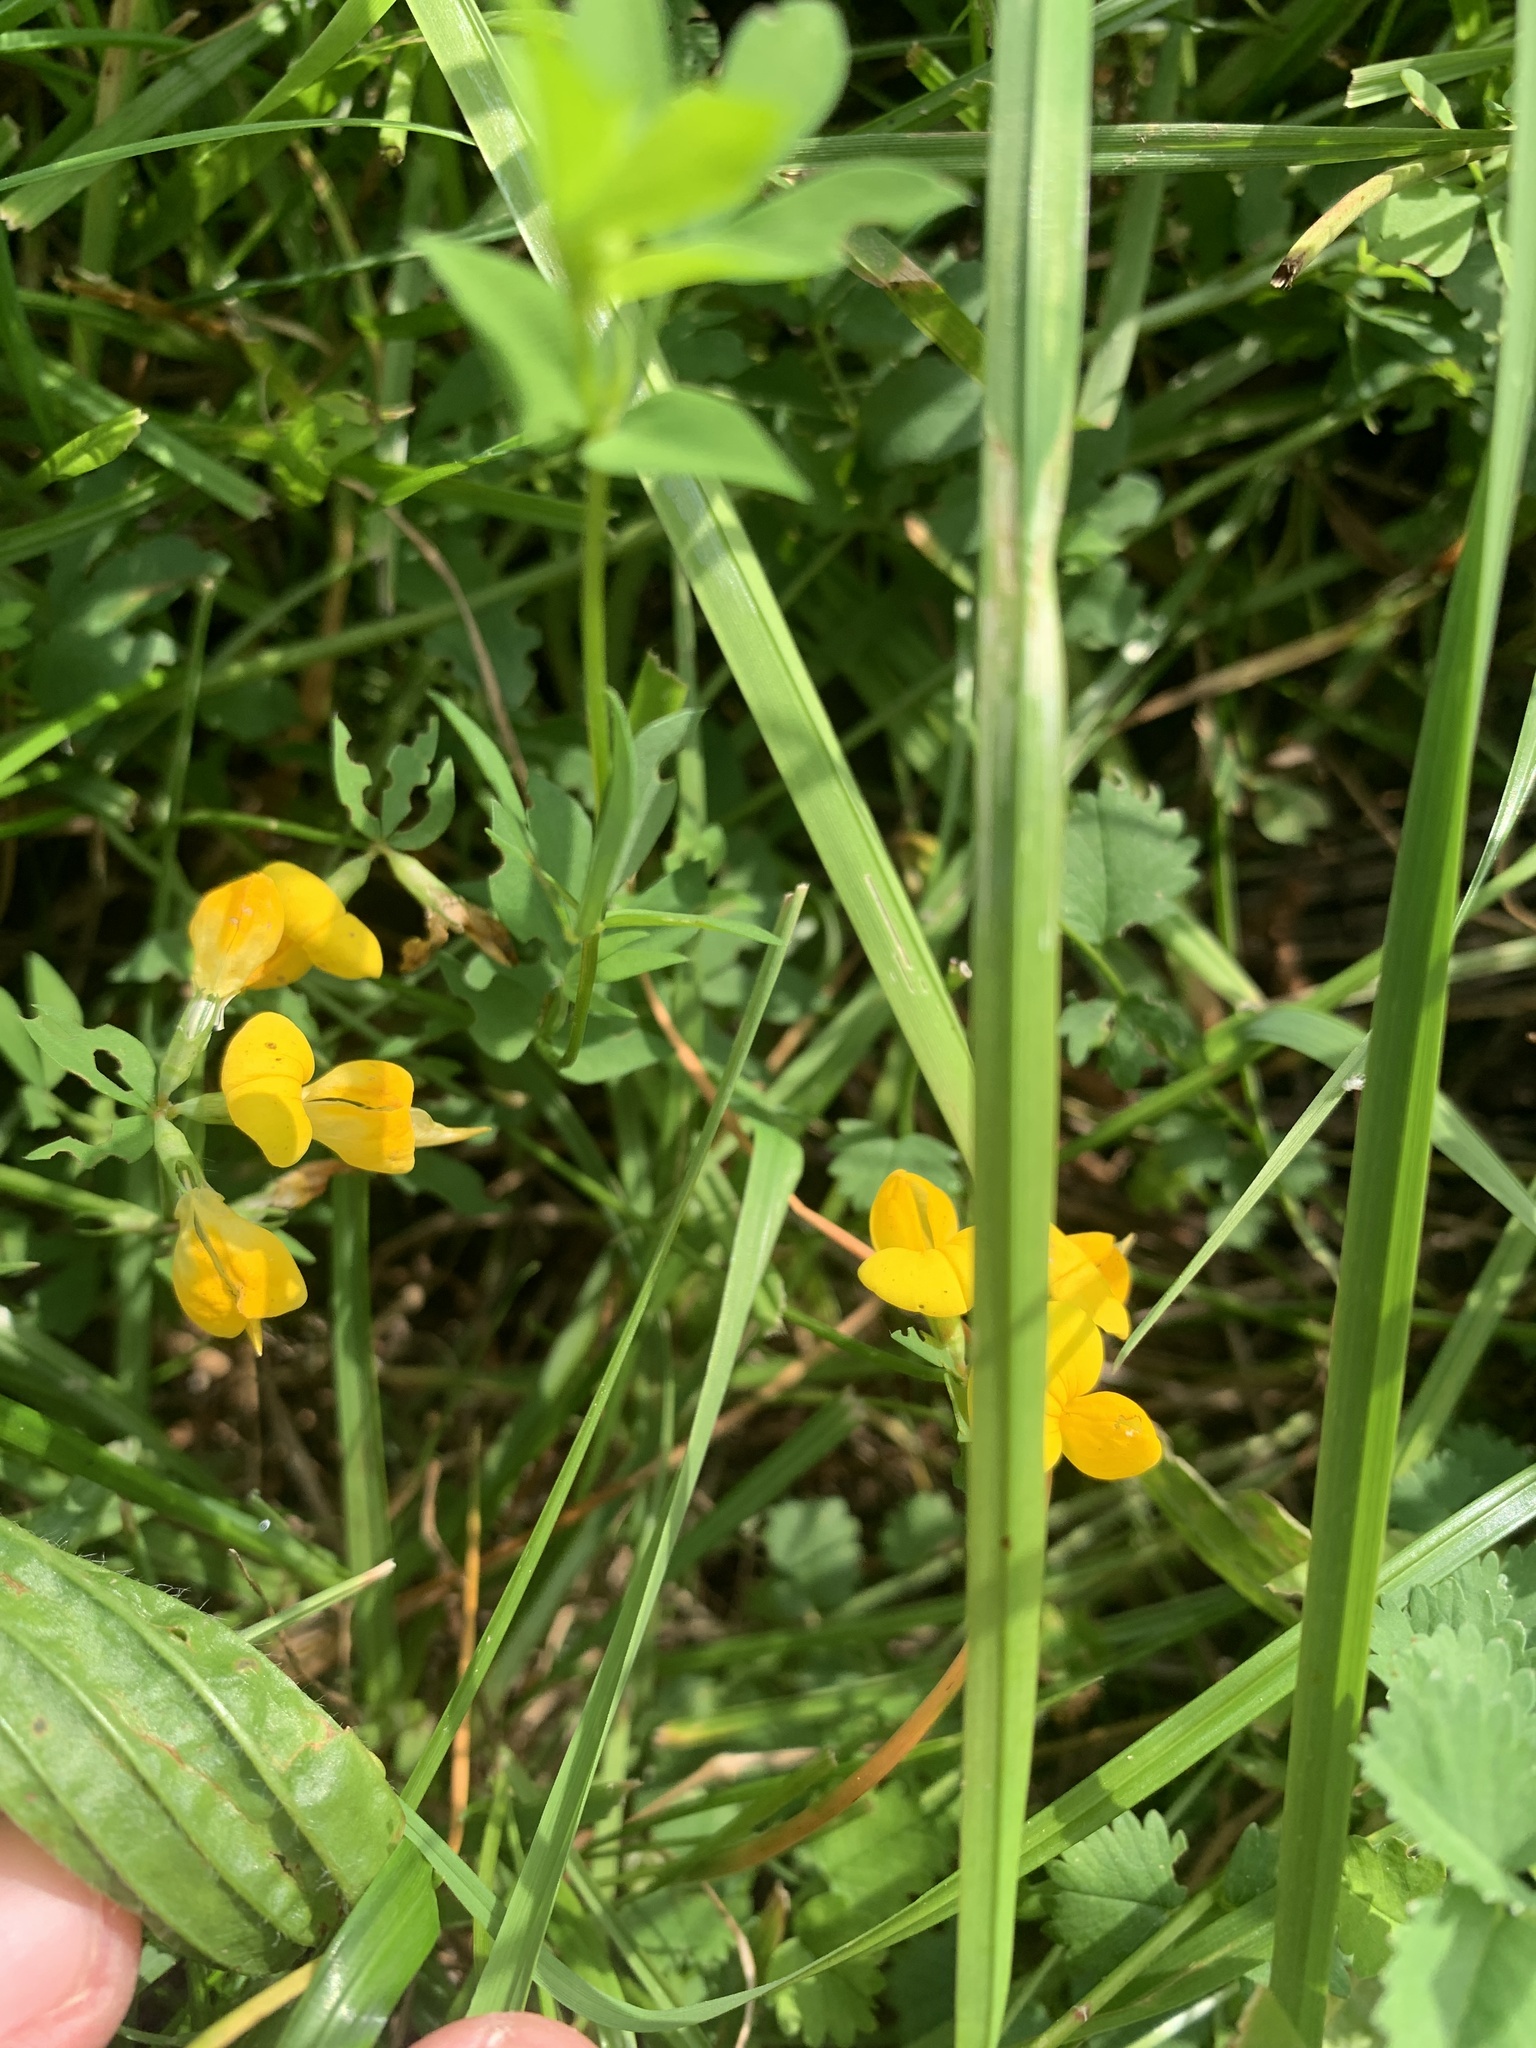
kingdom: Plantae
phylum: Tracheophyta
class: Magnoliopsida
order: Fabales
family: Fabaceae
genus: Lotus
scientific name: Lotus corniculatus
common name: Common bird's-foot-trefoil
